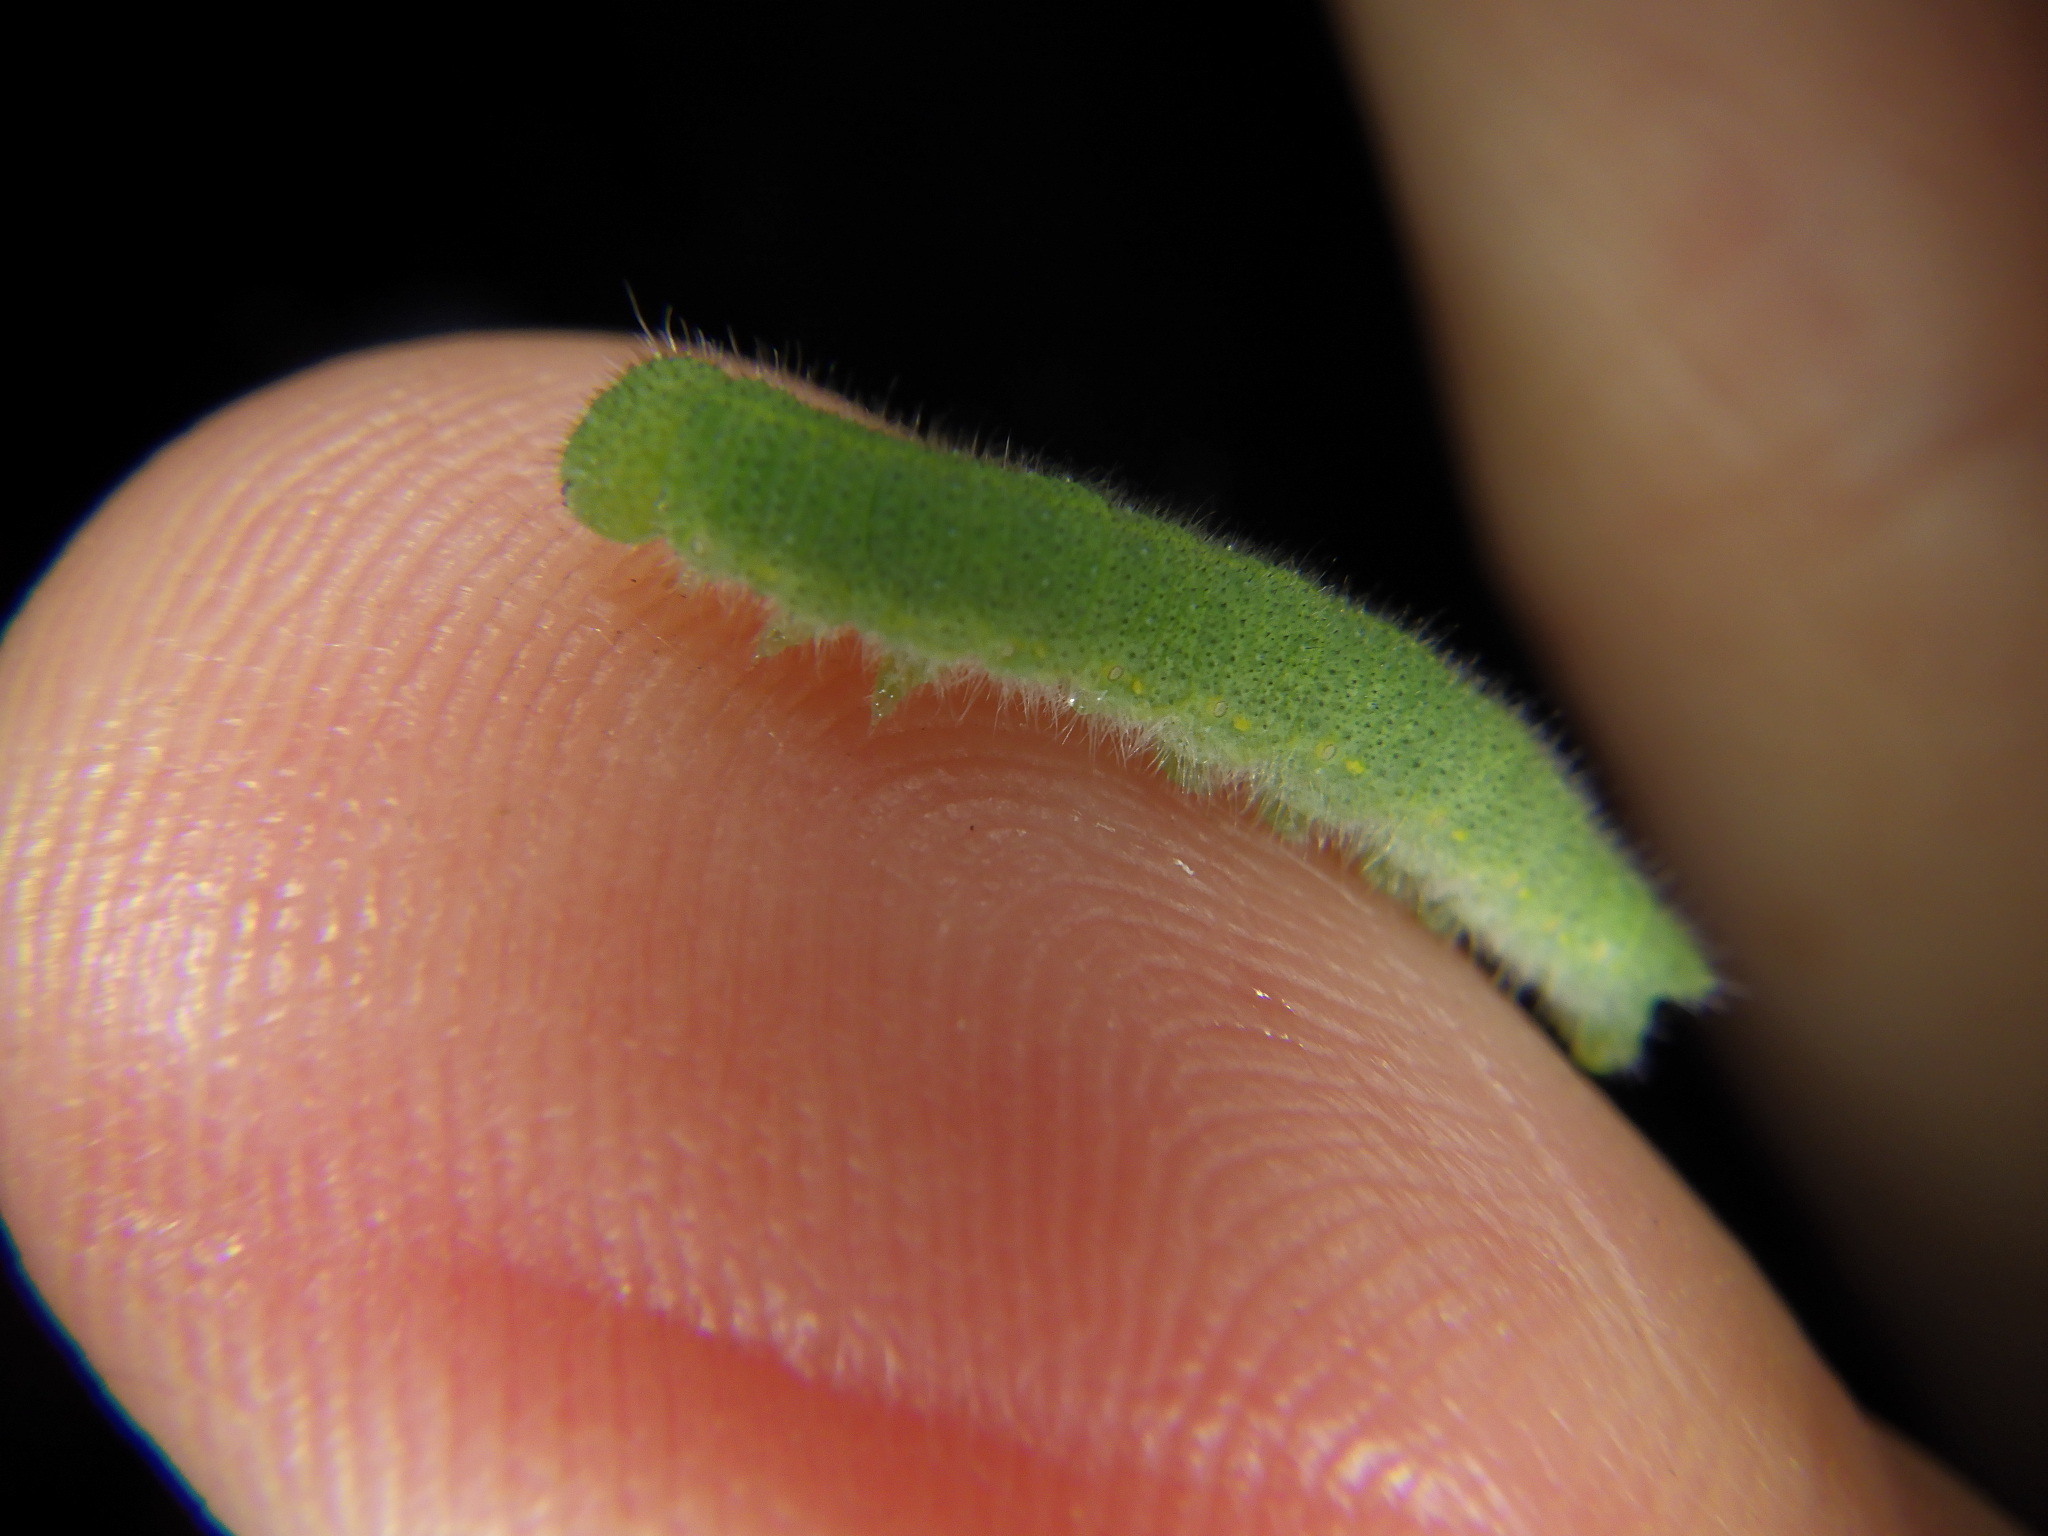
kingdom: Animalia
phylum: Arthropoda
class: Insecta
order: Lepidoptera
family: Pieridae
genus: Pieris
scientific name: Pieris rapae
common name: Small white
